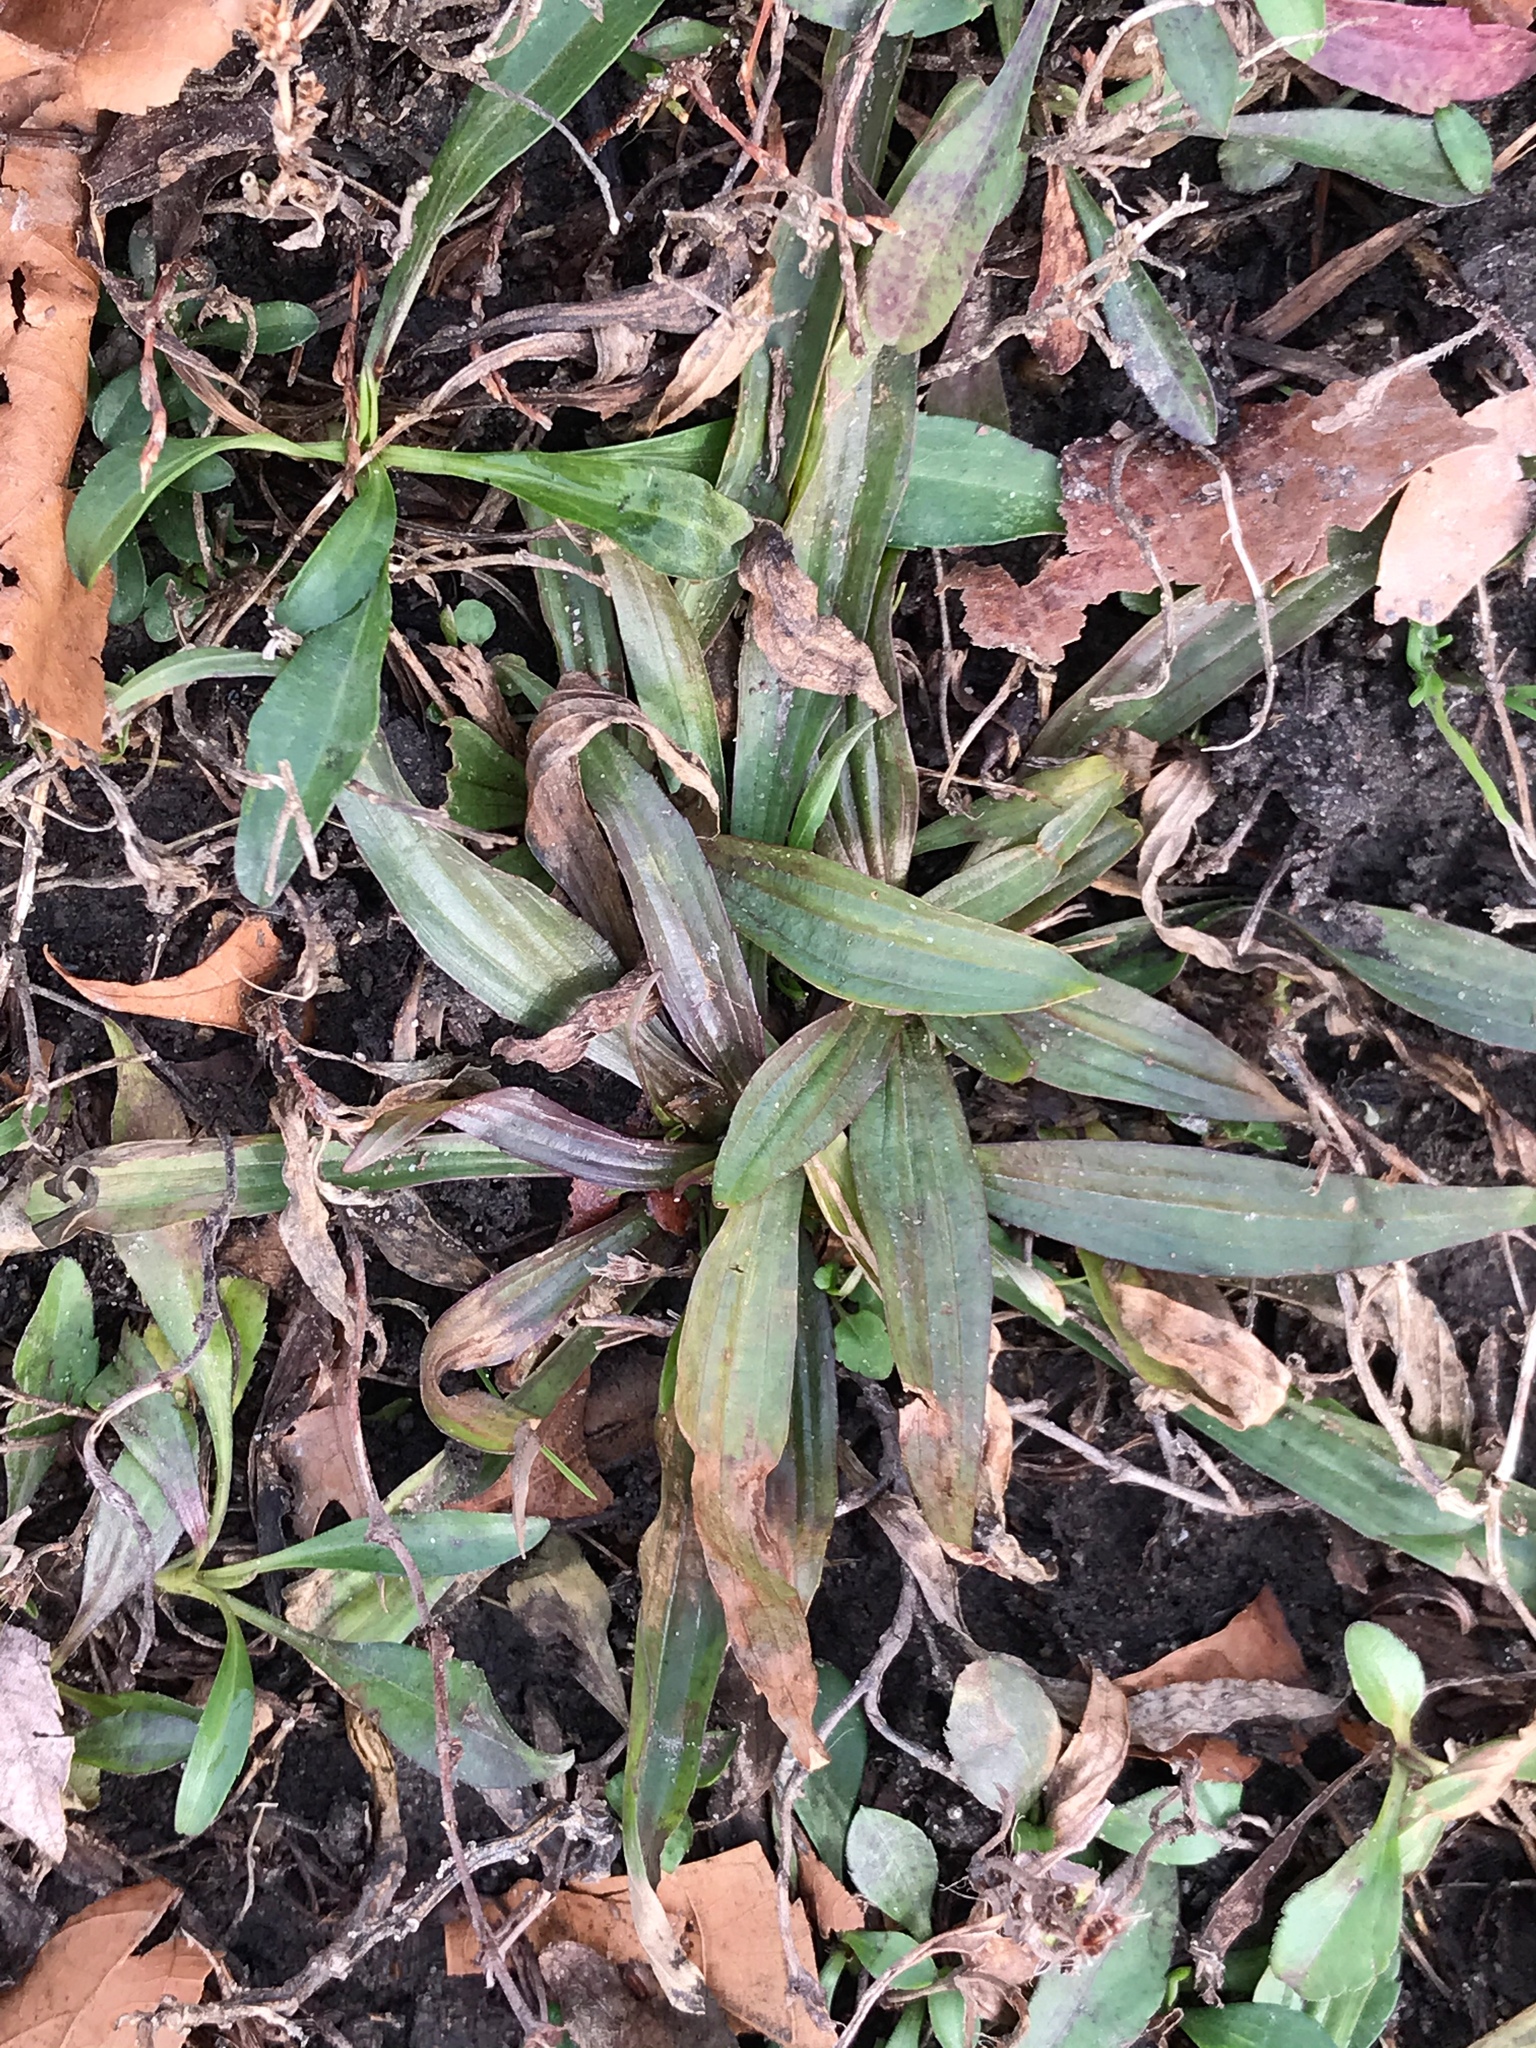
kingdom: Plantae
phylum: Tracheophyta
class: Magnoliopsida
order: Lamiales
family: Plantaginaceae
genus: Plantago
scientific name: Plantago lanceolata
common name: Ribwort plantain
